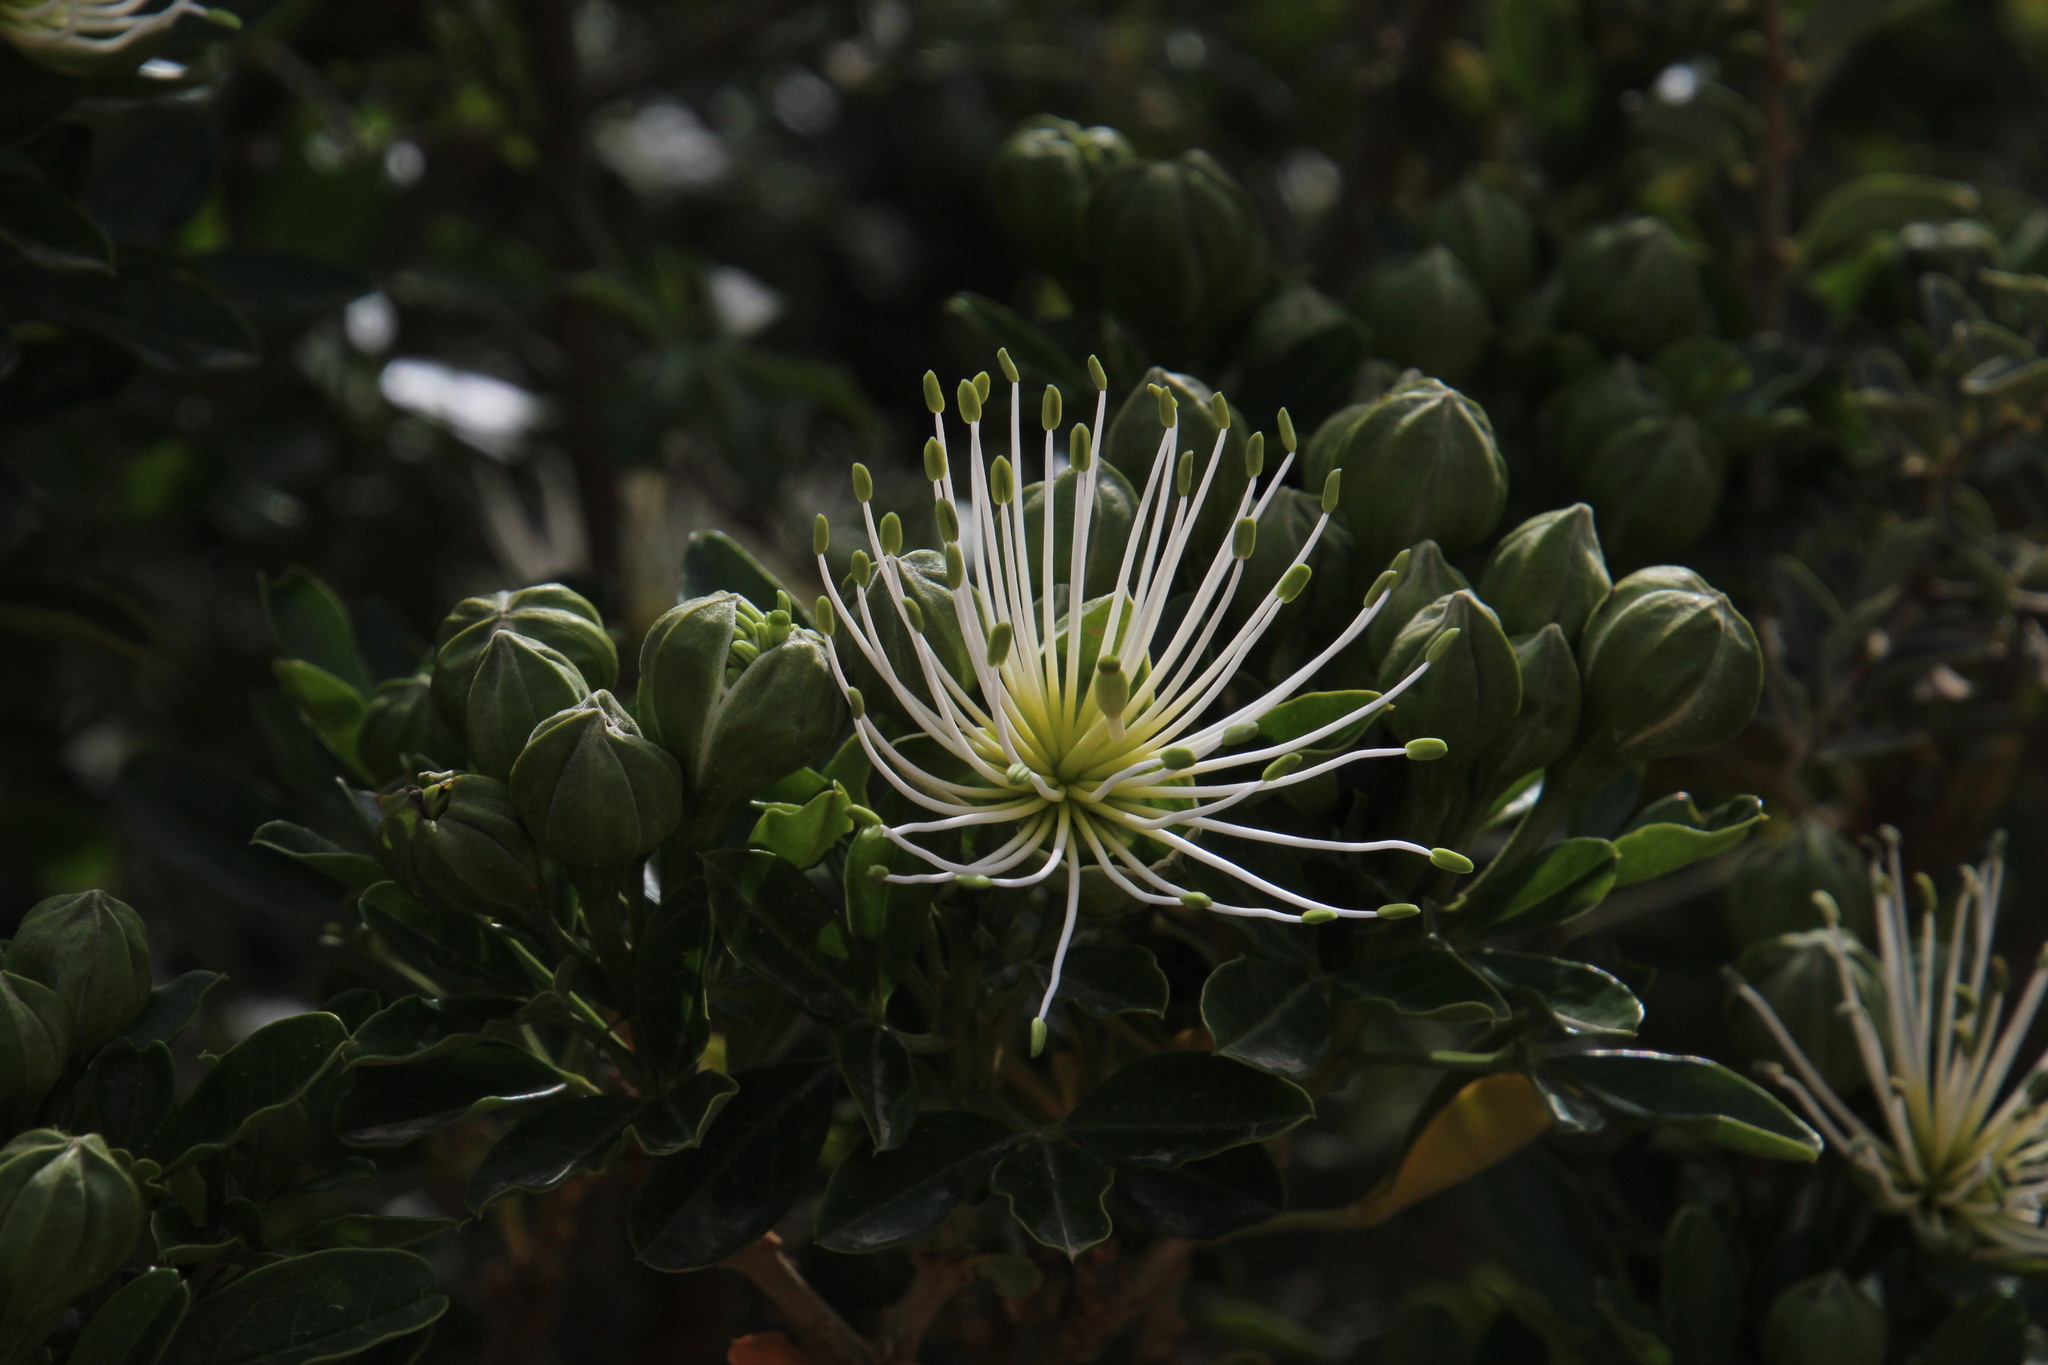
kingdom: Plantae
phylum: Tracheophyta
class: Magnoliopsida
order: Brassicales
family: Capparaceae
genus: Maerua
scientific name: Maerua cafra
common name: Bush maerua
